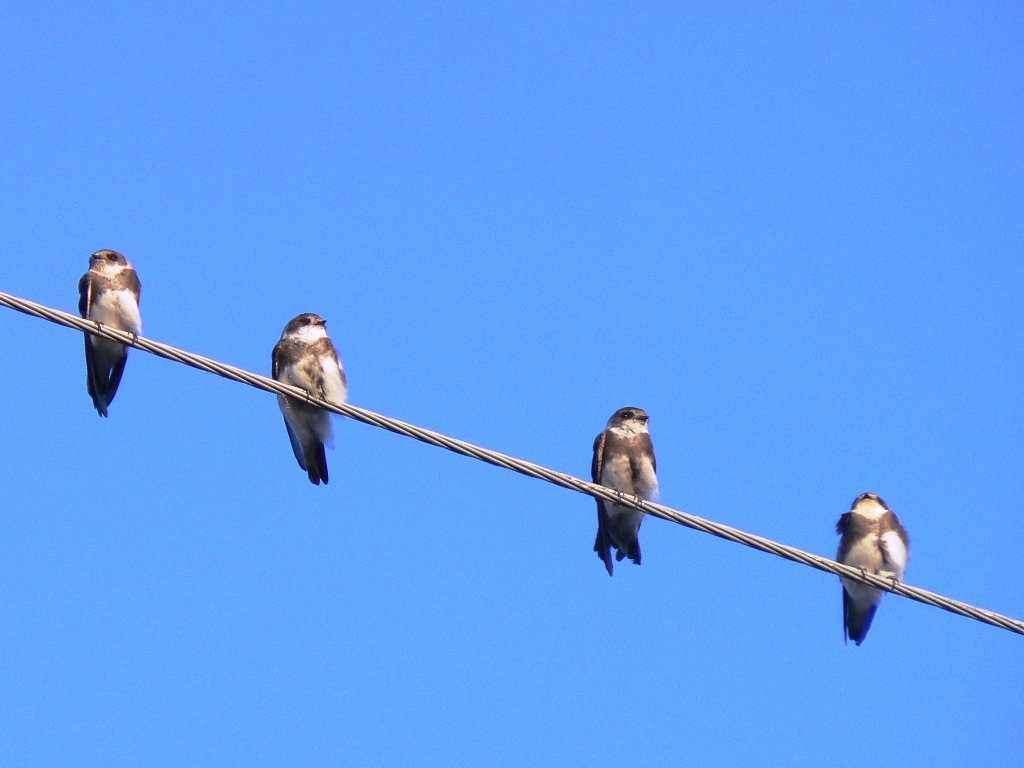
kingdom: Animalia
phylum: Chordata
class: Aves
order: Passeriformes
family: Hirundinidae
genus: Riparia
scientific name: Riparia riparia
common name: Sand martin
